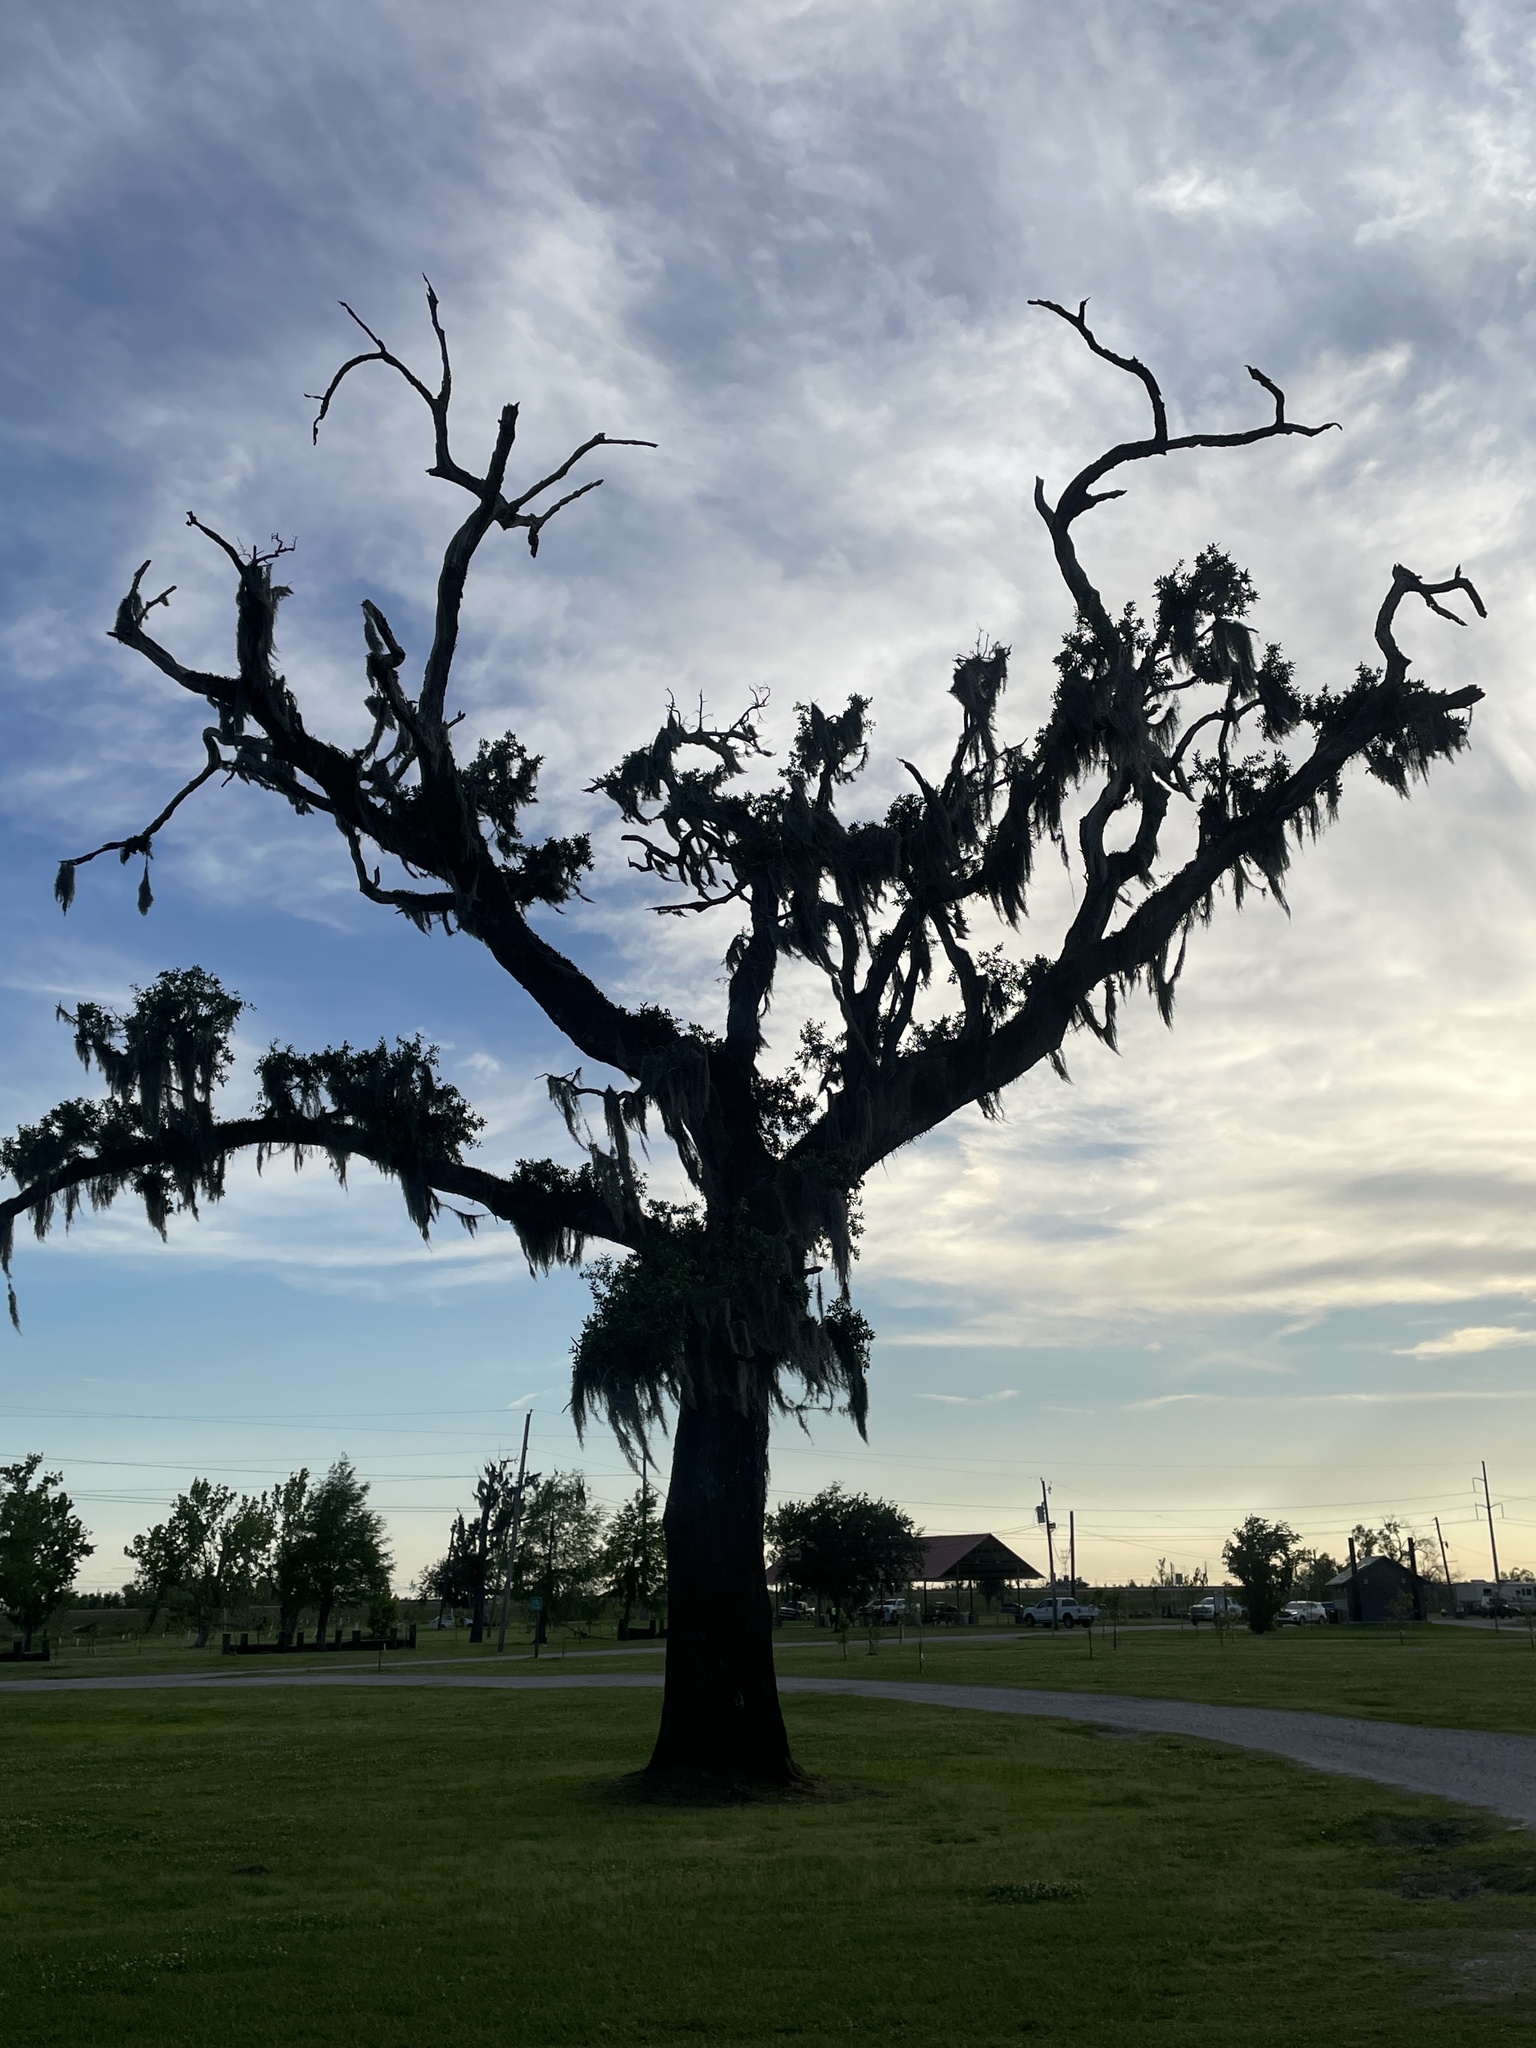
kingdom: Plantae
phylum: Tracheophyta
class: Liliopsida
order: Poales
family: Bromeliaceae
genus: Tillandsia
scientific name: Tillandsia usneoides
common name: Spanish moss
